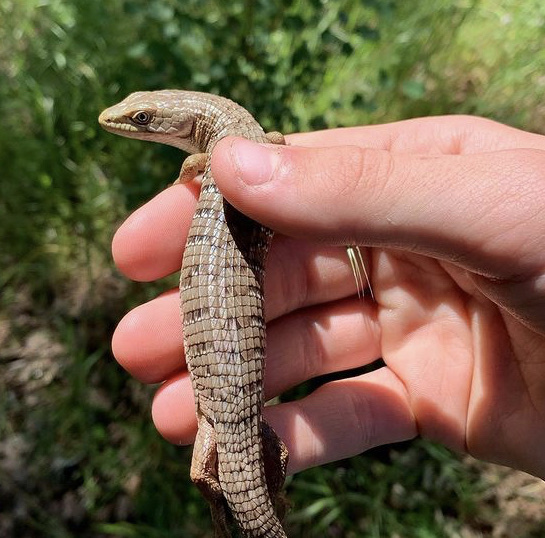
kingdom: Animalia
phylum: Chordata
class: Squamata
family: Anguidae
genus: Elgaria
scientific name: Elgaria multicarinata
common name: Southern alligator lizard
